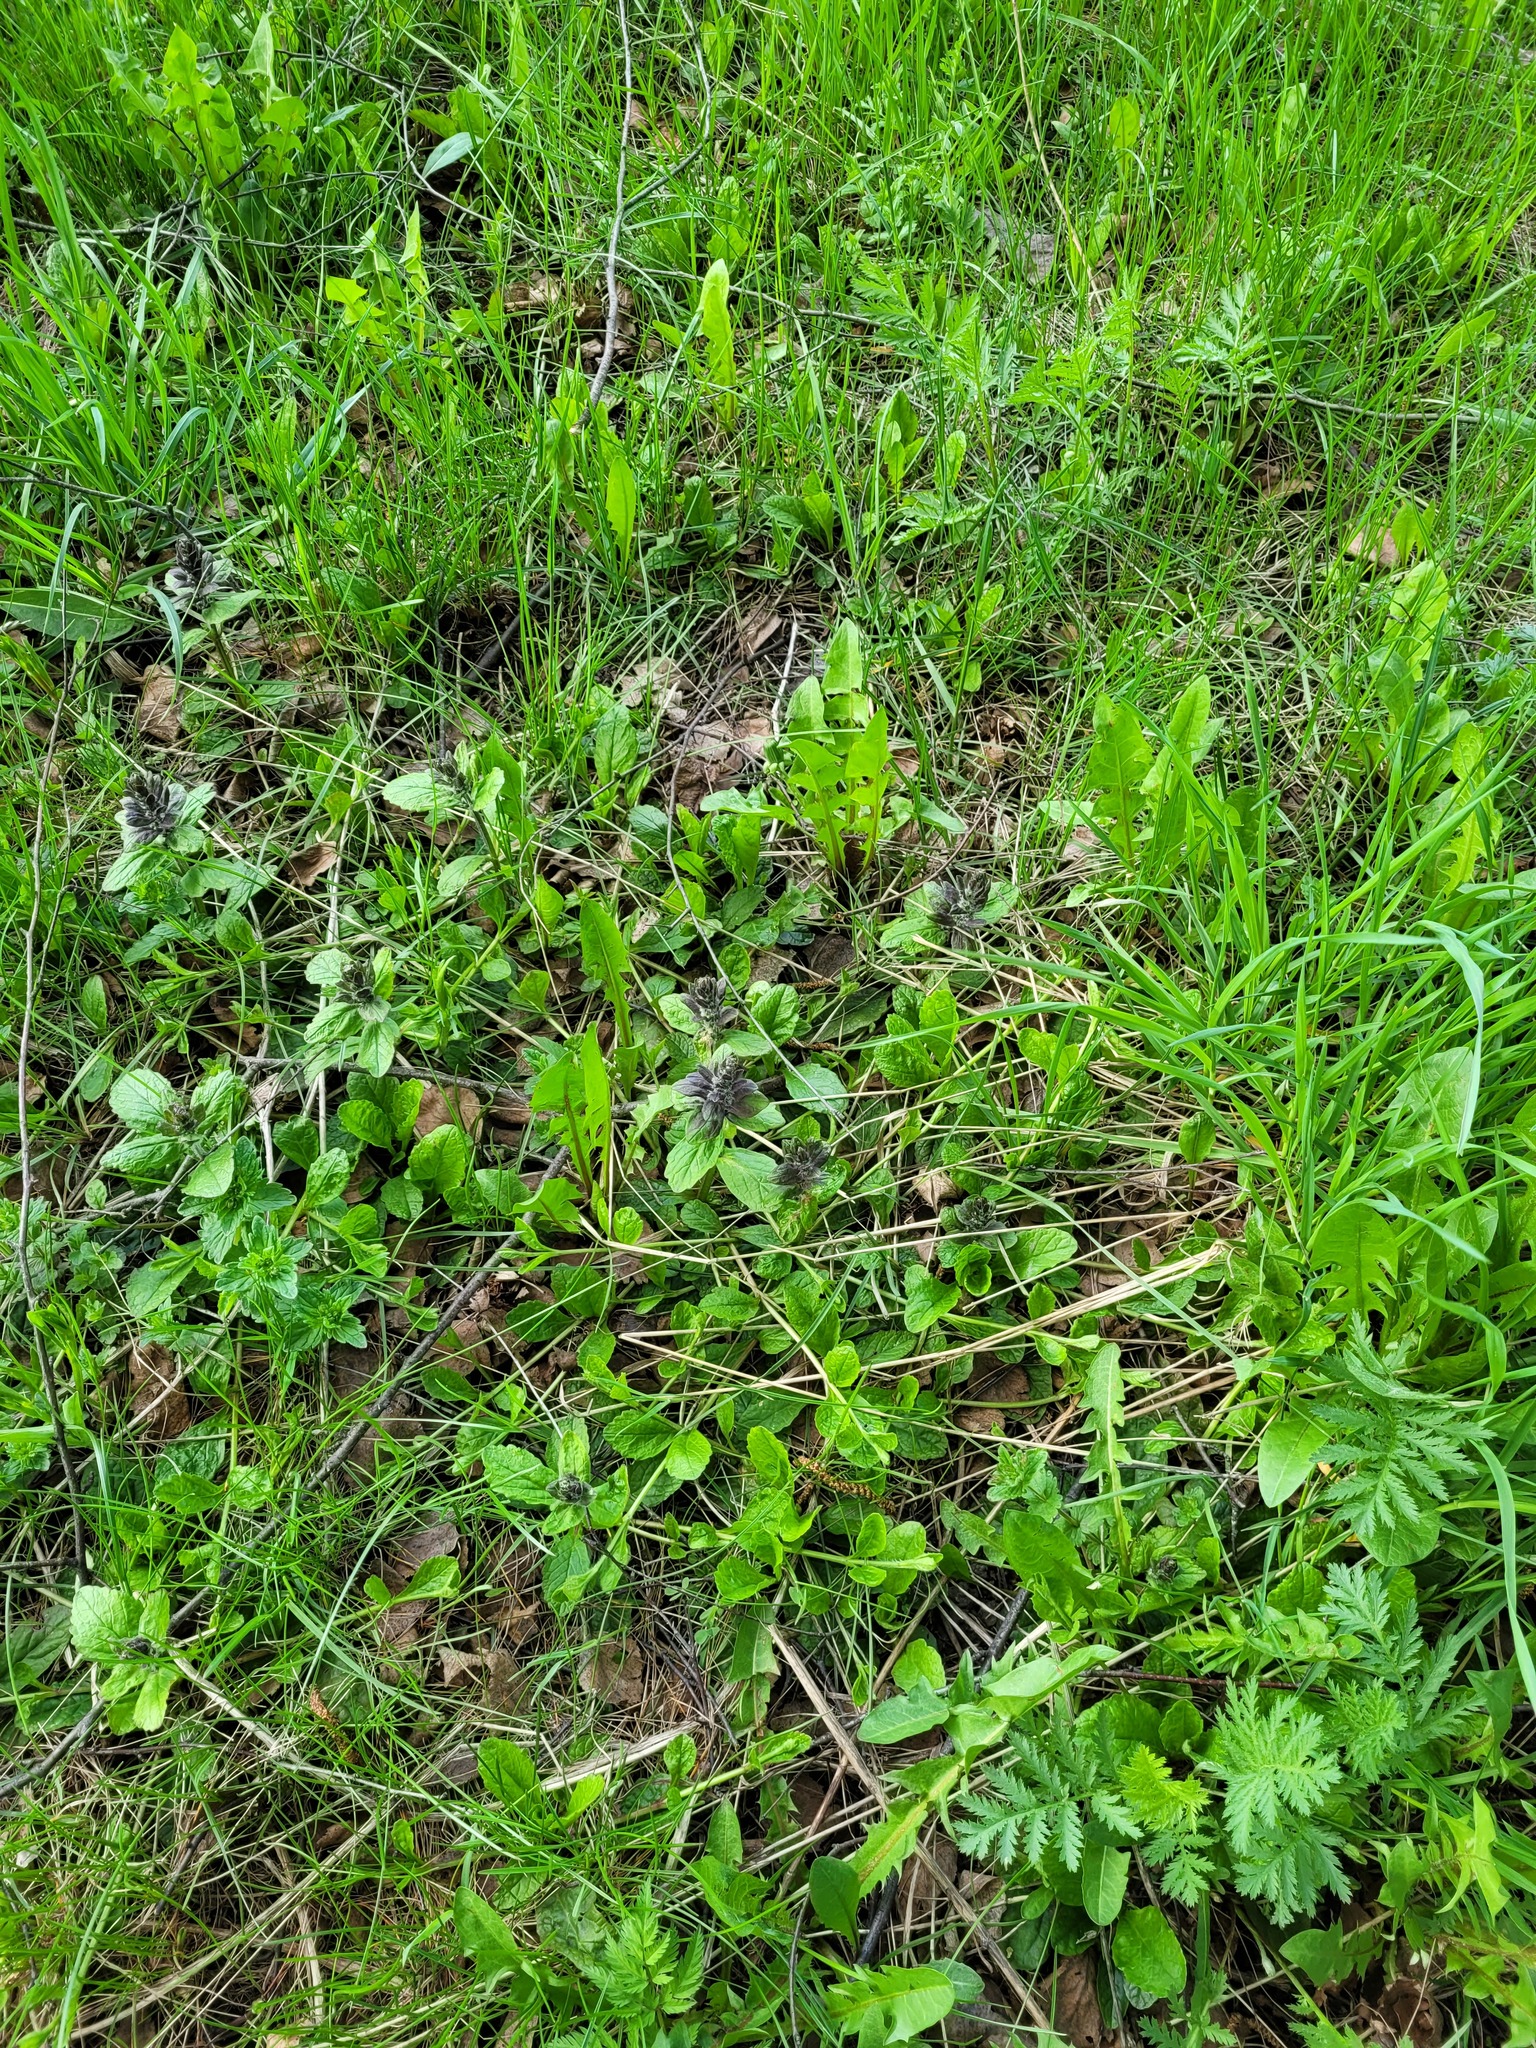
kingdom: Plantae
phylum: Tracheophyta
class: Magnoliopsida
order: Lamiales
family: Lamiaceae
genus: Ajuga
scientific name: Ajuga reptans
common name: Bugle
